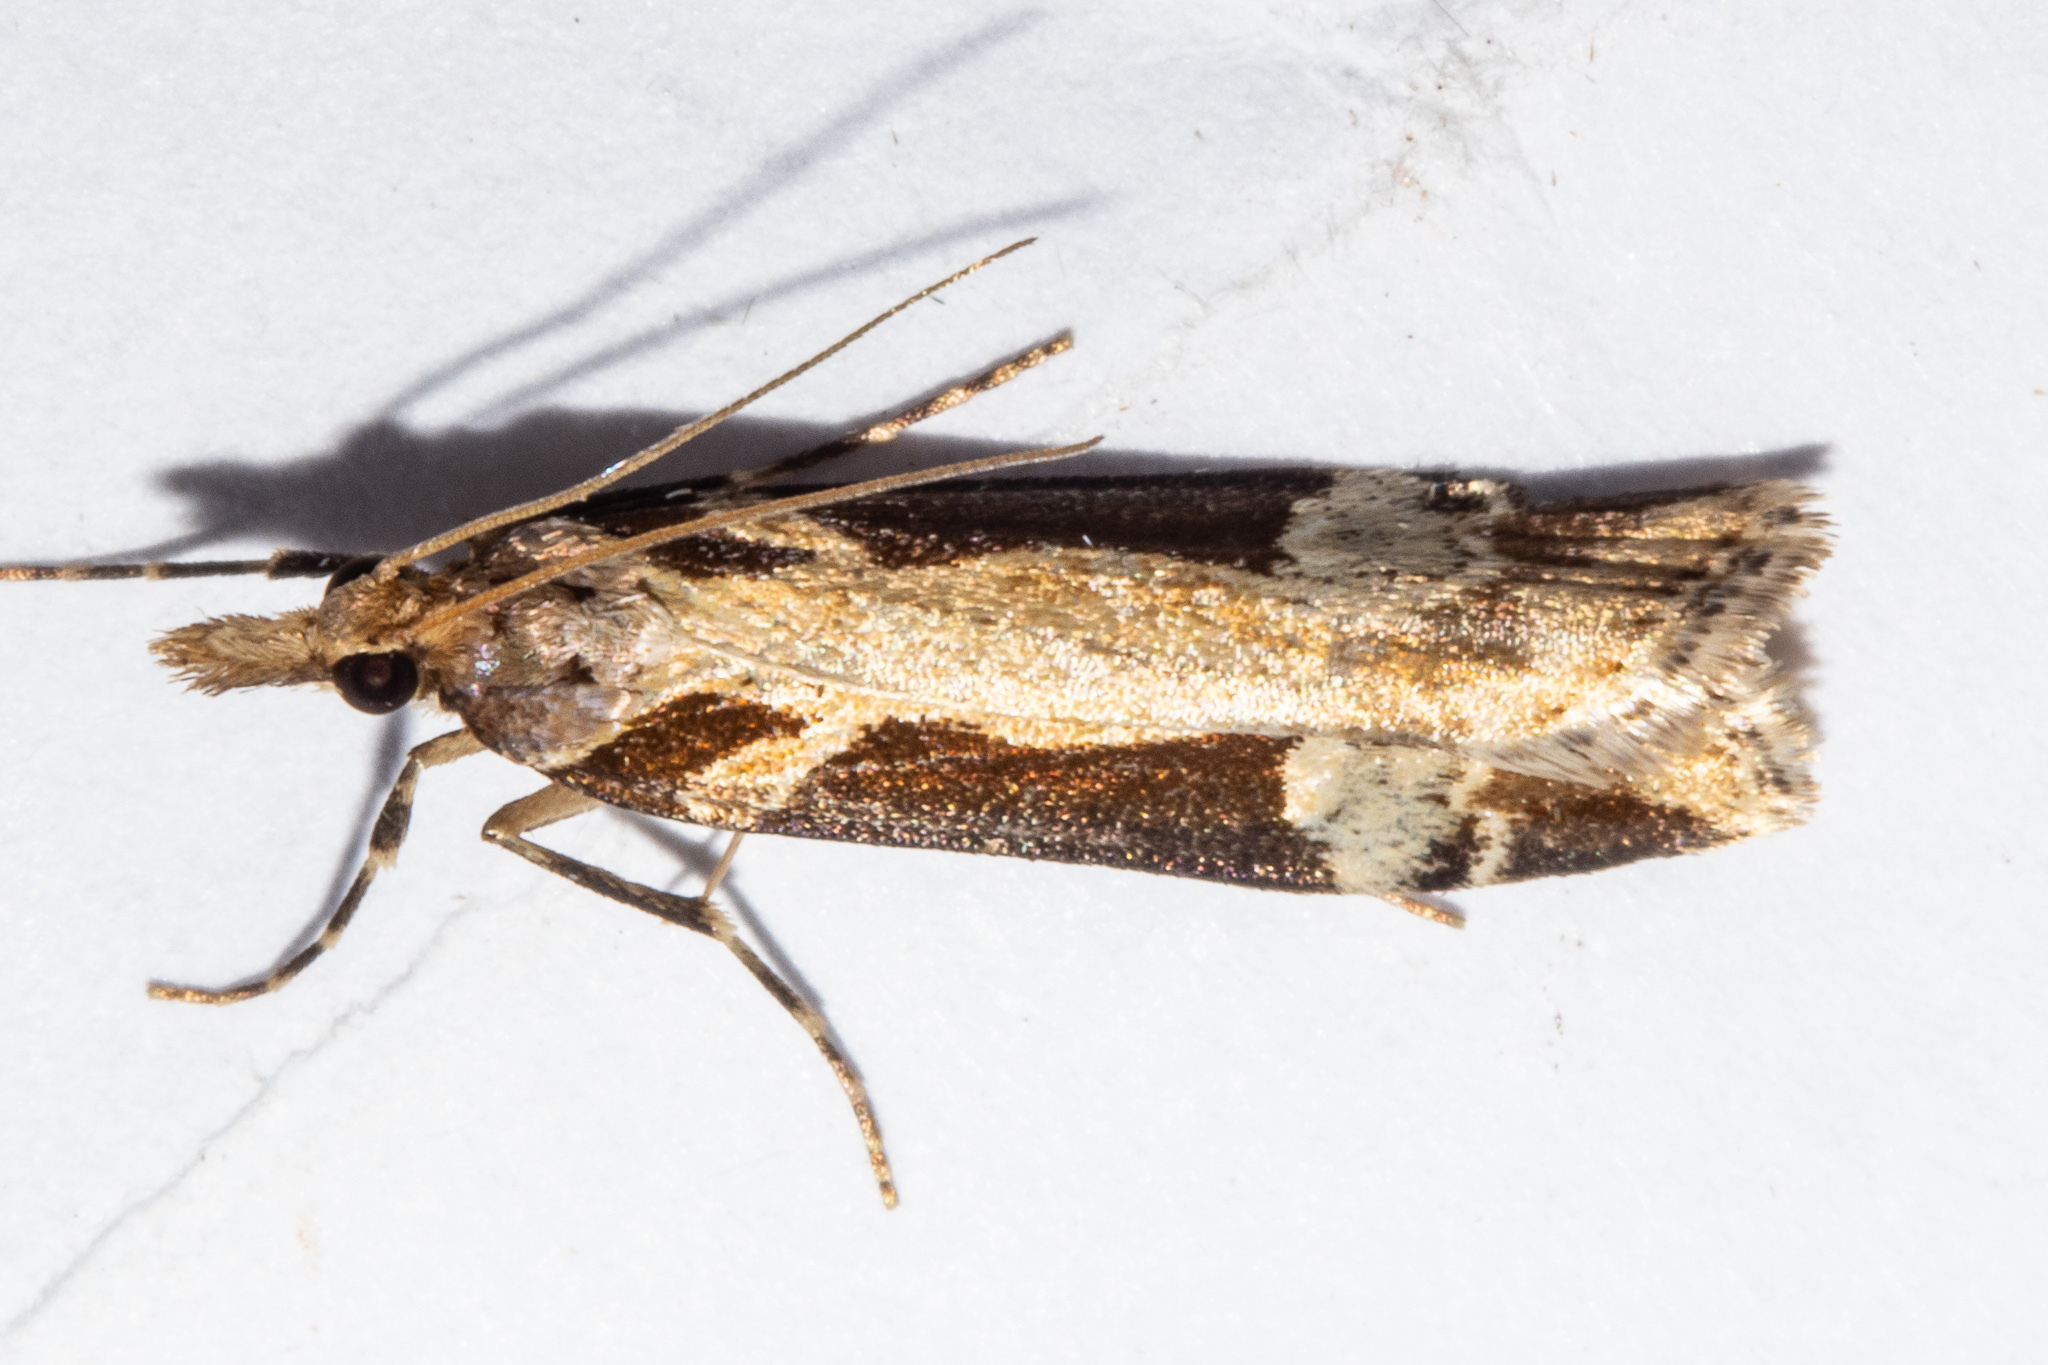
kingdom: Animalia
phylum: Arthropoda
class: Insecta
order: Lepidoptera
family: Crambidae
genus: Scoparia
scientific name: Scoparia trapezophora
